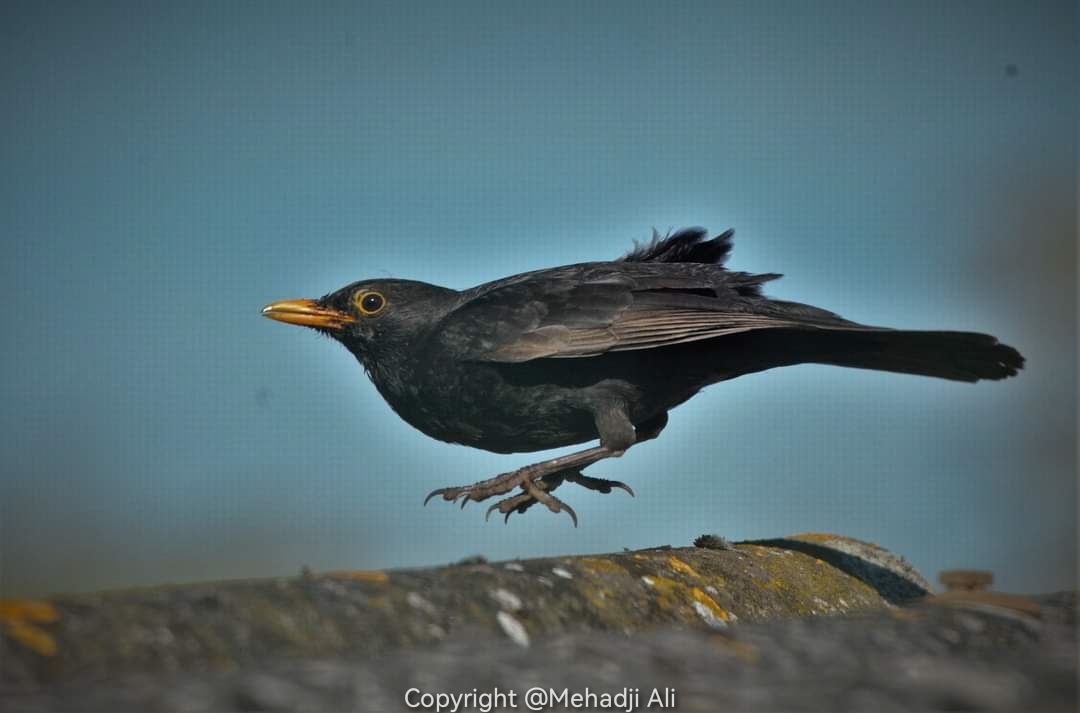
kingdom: Animalia
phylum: Chordata
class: Aves
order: Passeriformes
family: Turdidae
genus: Turdus
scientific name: Turdus merula
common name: Common blackbird
